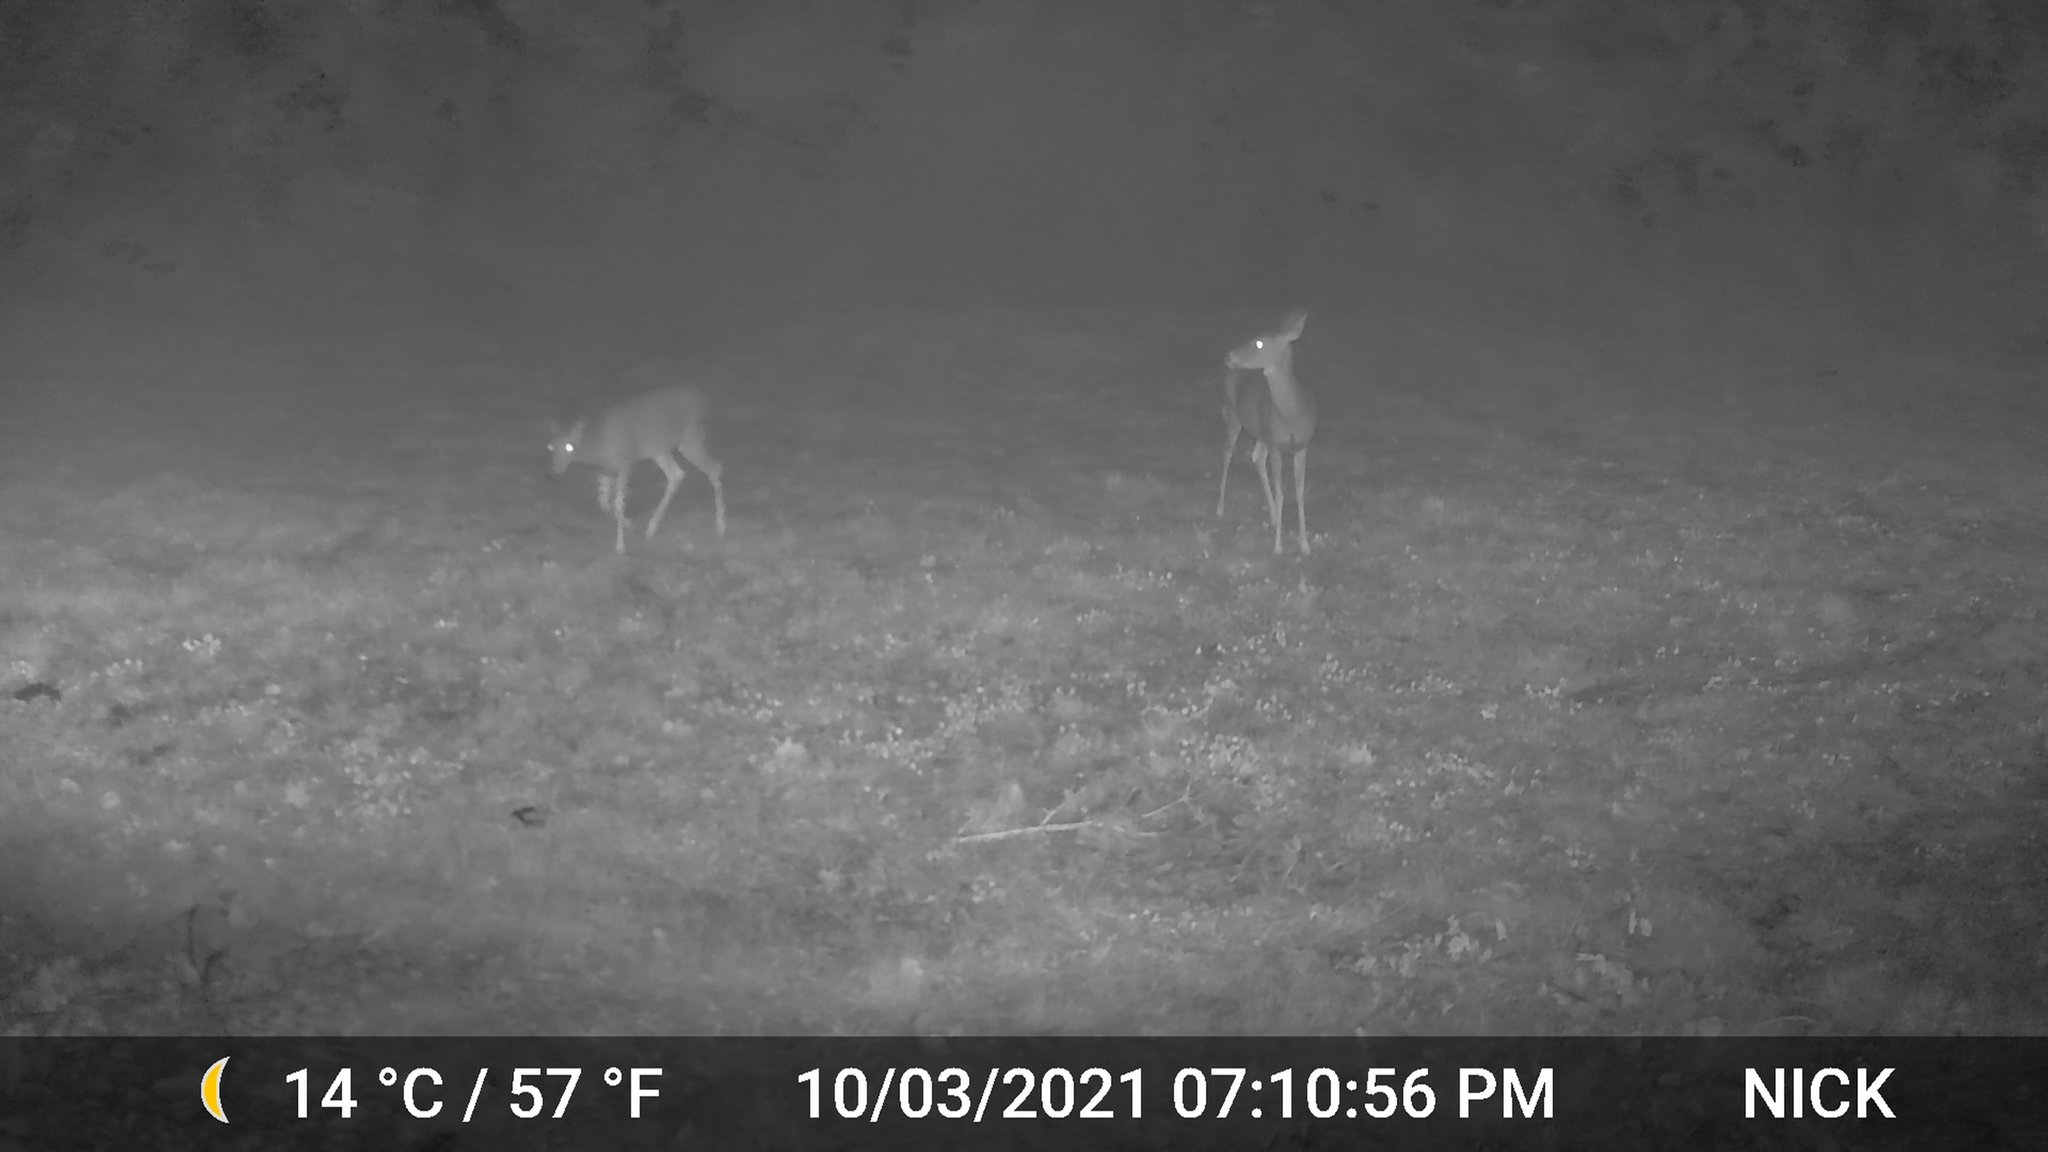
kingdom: Animalia
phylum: Chordata
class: Mammalia
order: Artiodactyla
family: Cervidae
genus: Odocoileus
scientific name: Odocoileus virginianus
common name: White-tailed deer
